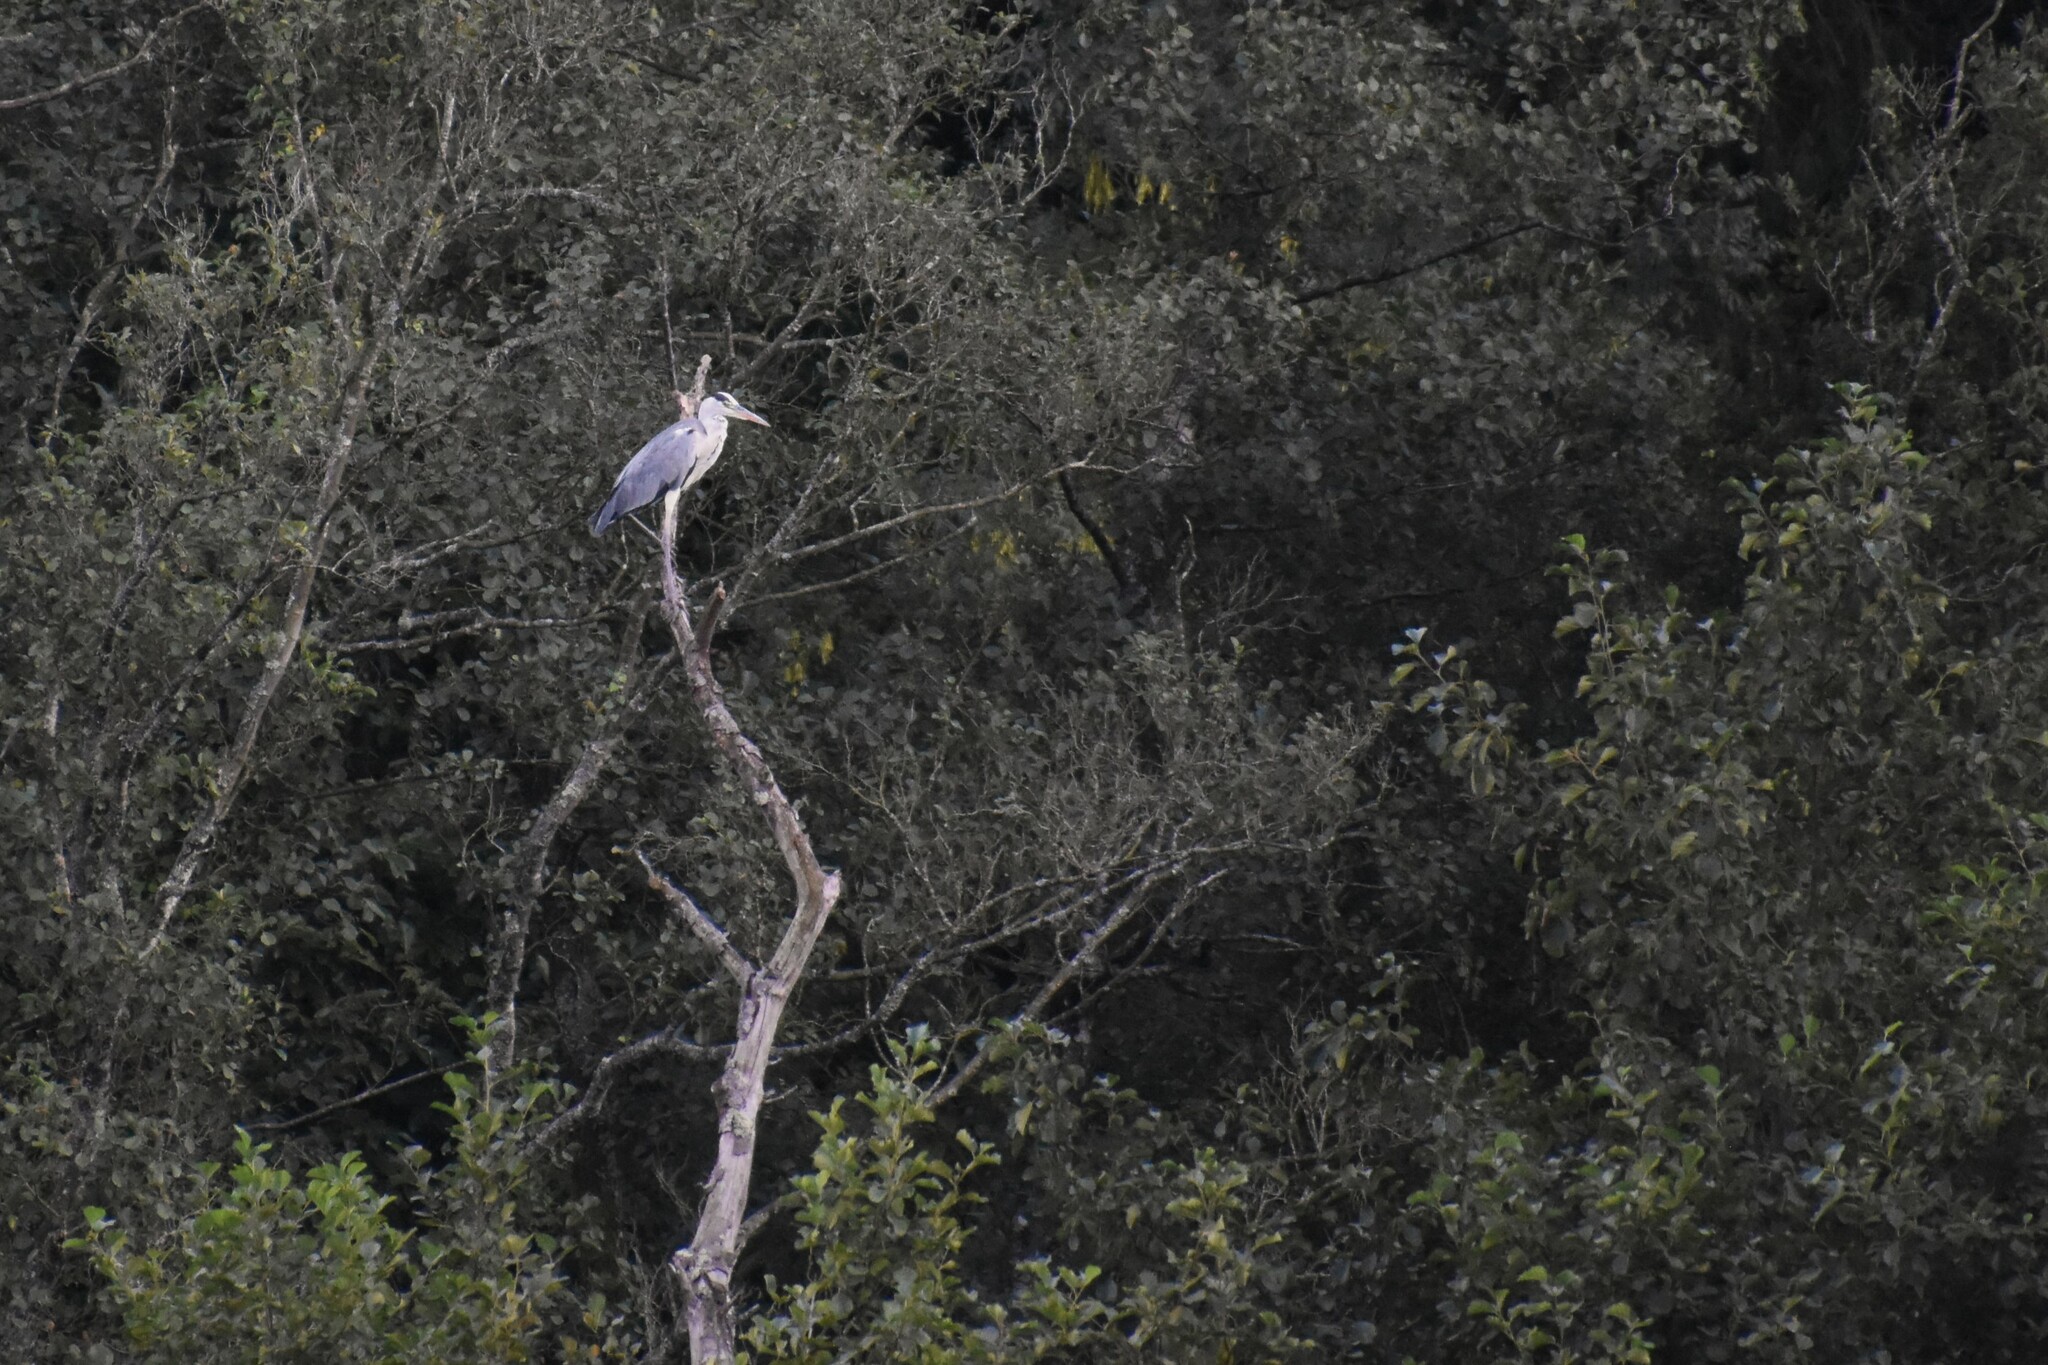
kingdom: Animalia
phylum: Chordata
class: Aves
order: Pelecaniformes
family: Ardeidae
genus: Ardea
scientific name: Ardea cinerea
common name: Grey heron
